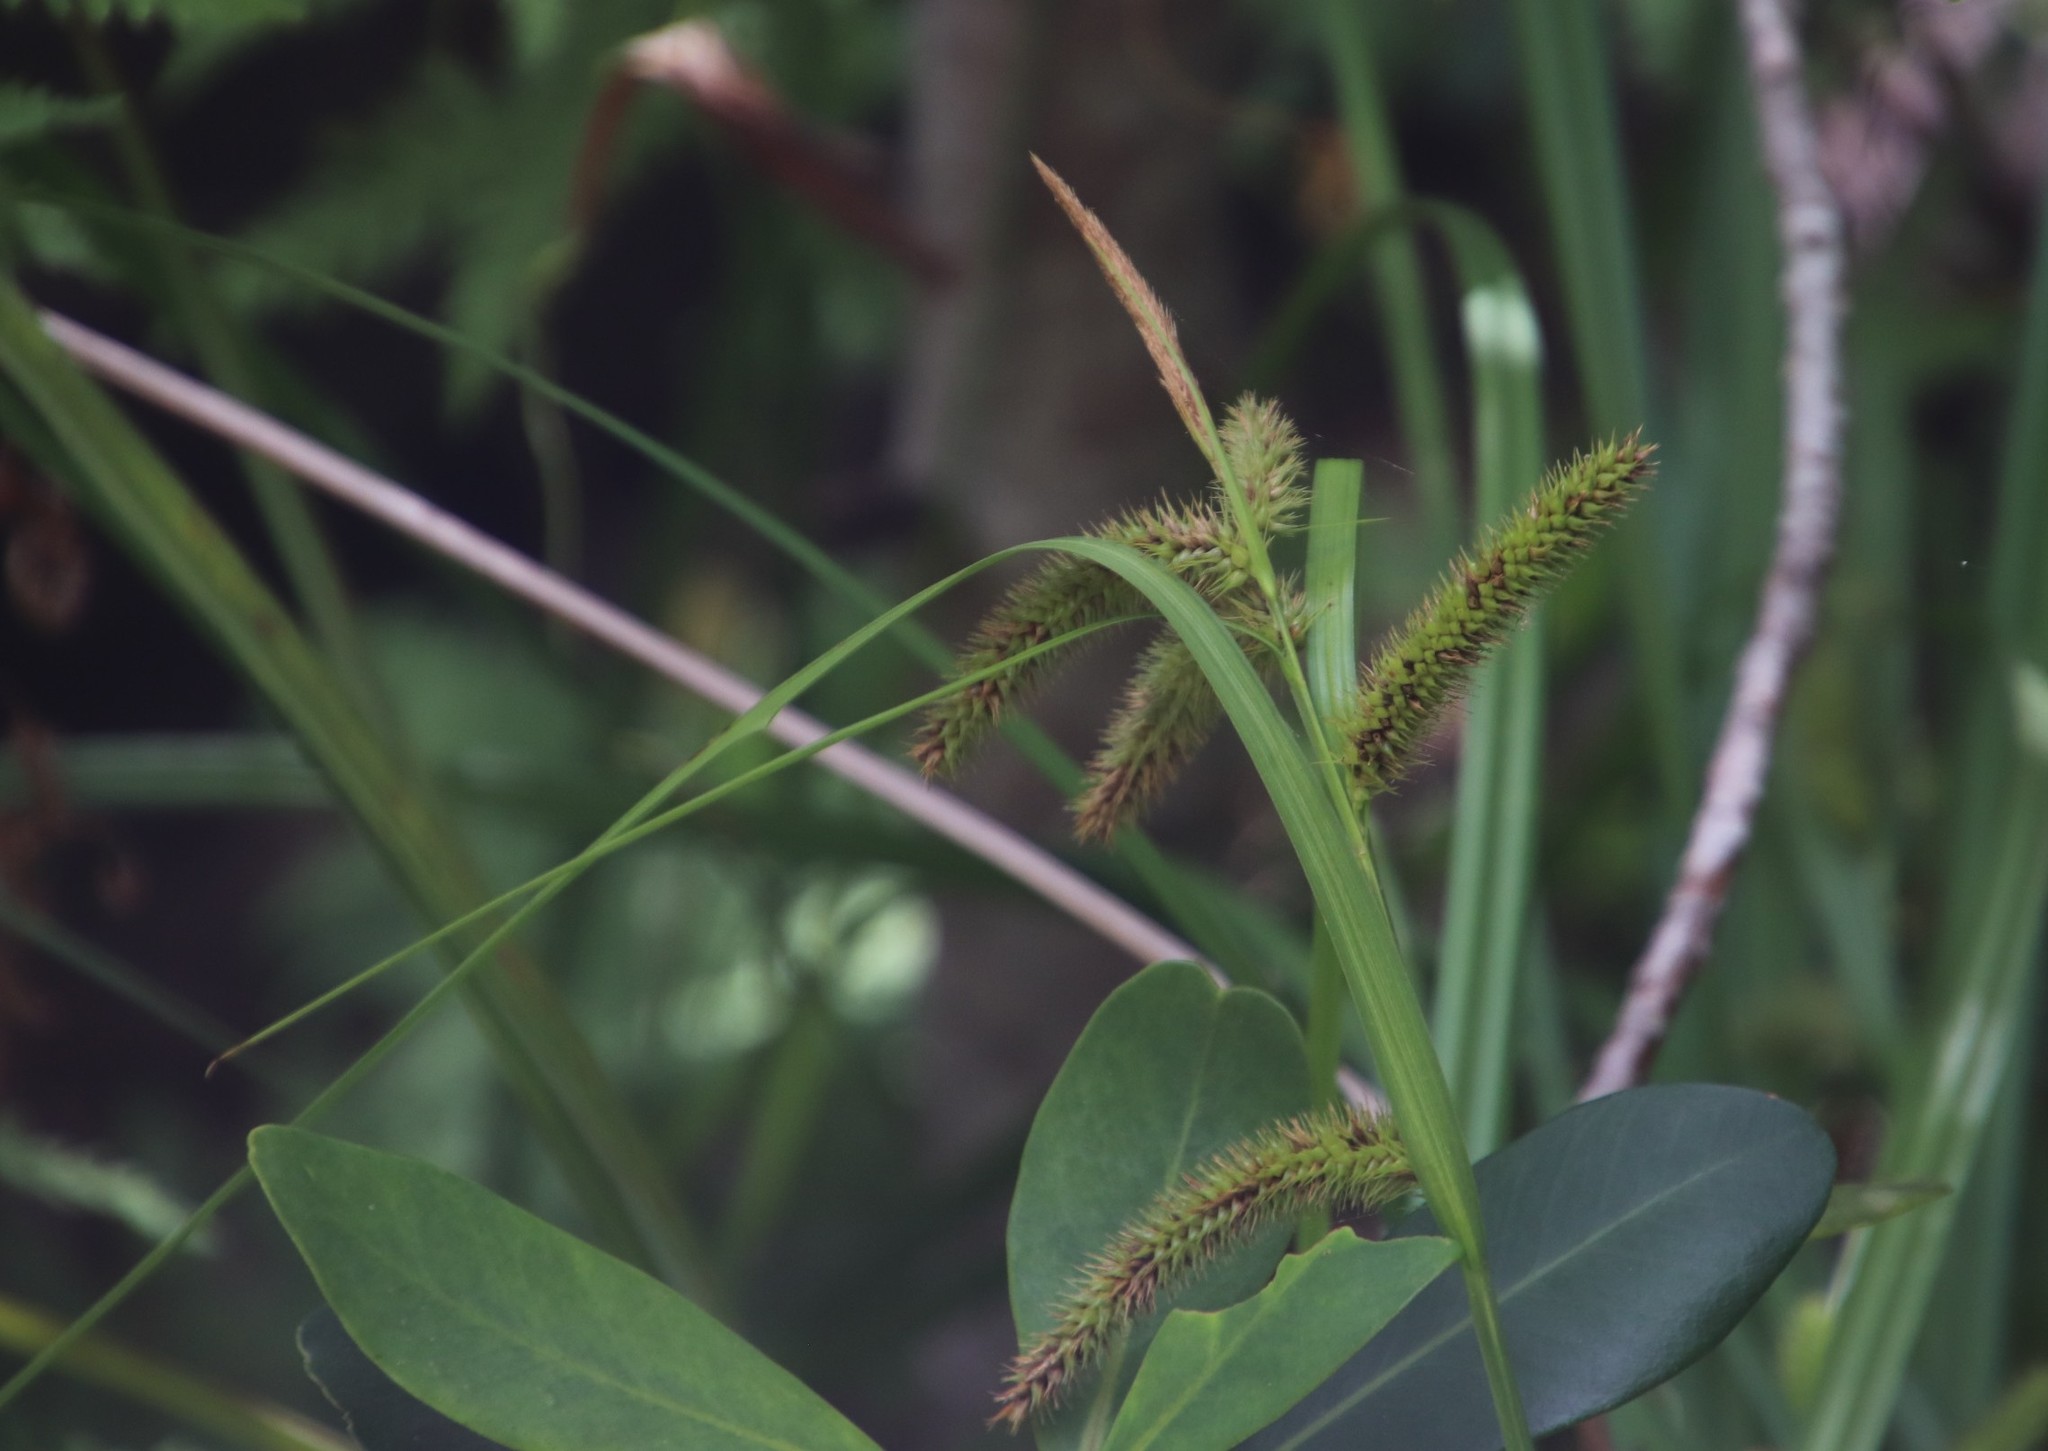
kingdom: Plantae
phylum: Tracheophyta
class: Liliopsida
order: Poales
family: Cyperaceae
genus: Carex
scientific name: Carex aethiopica
